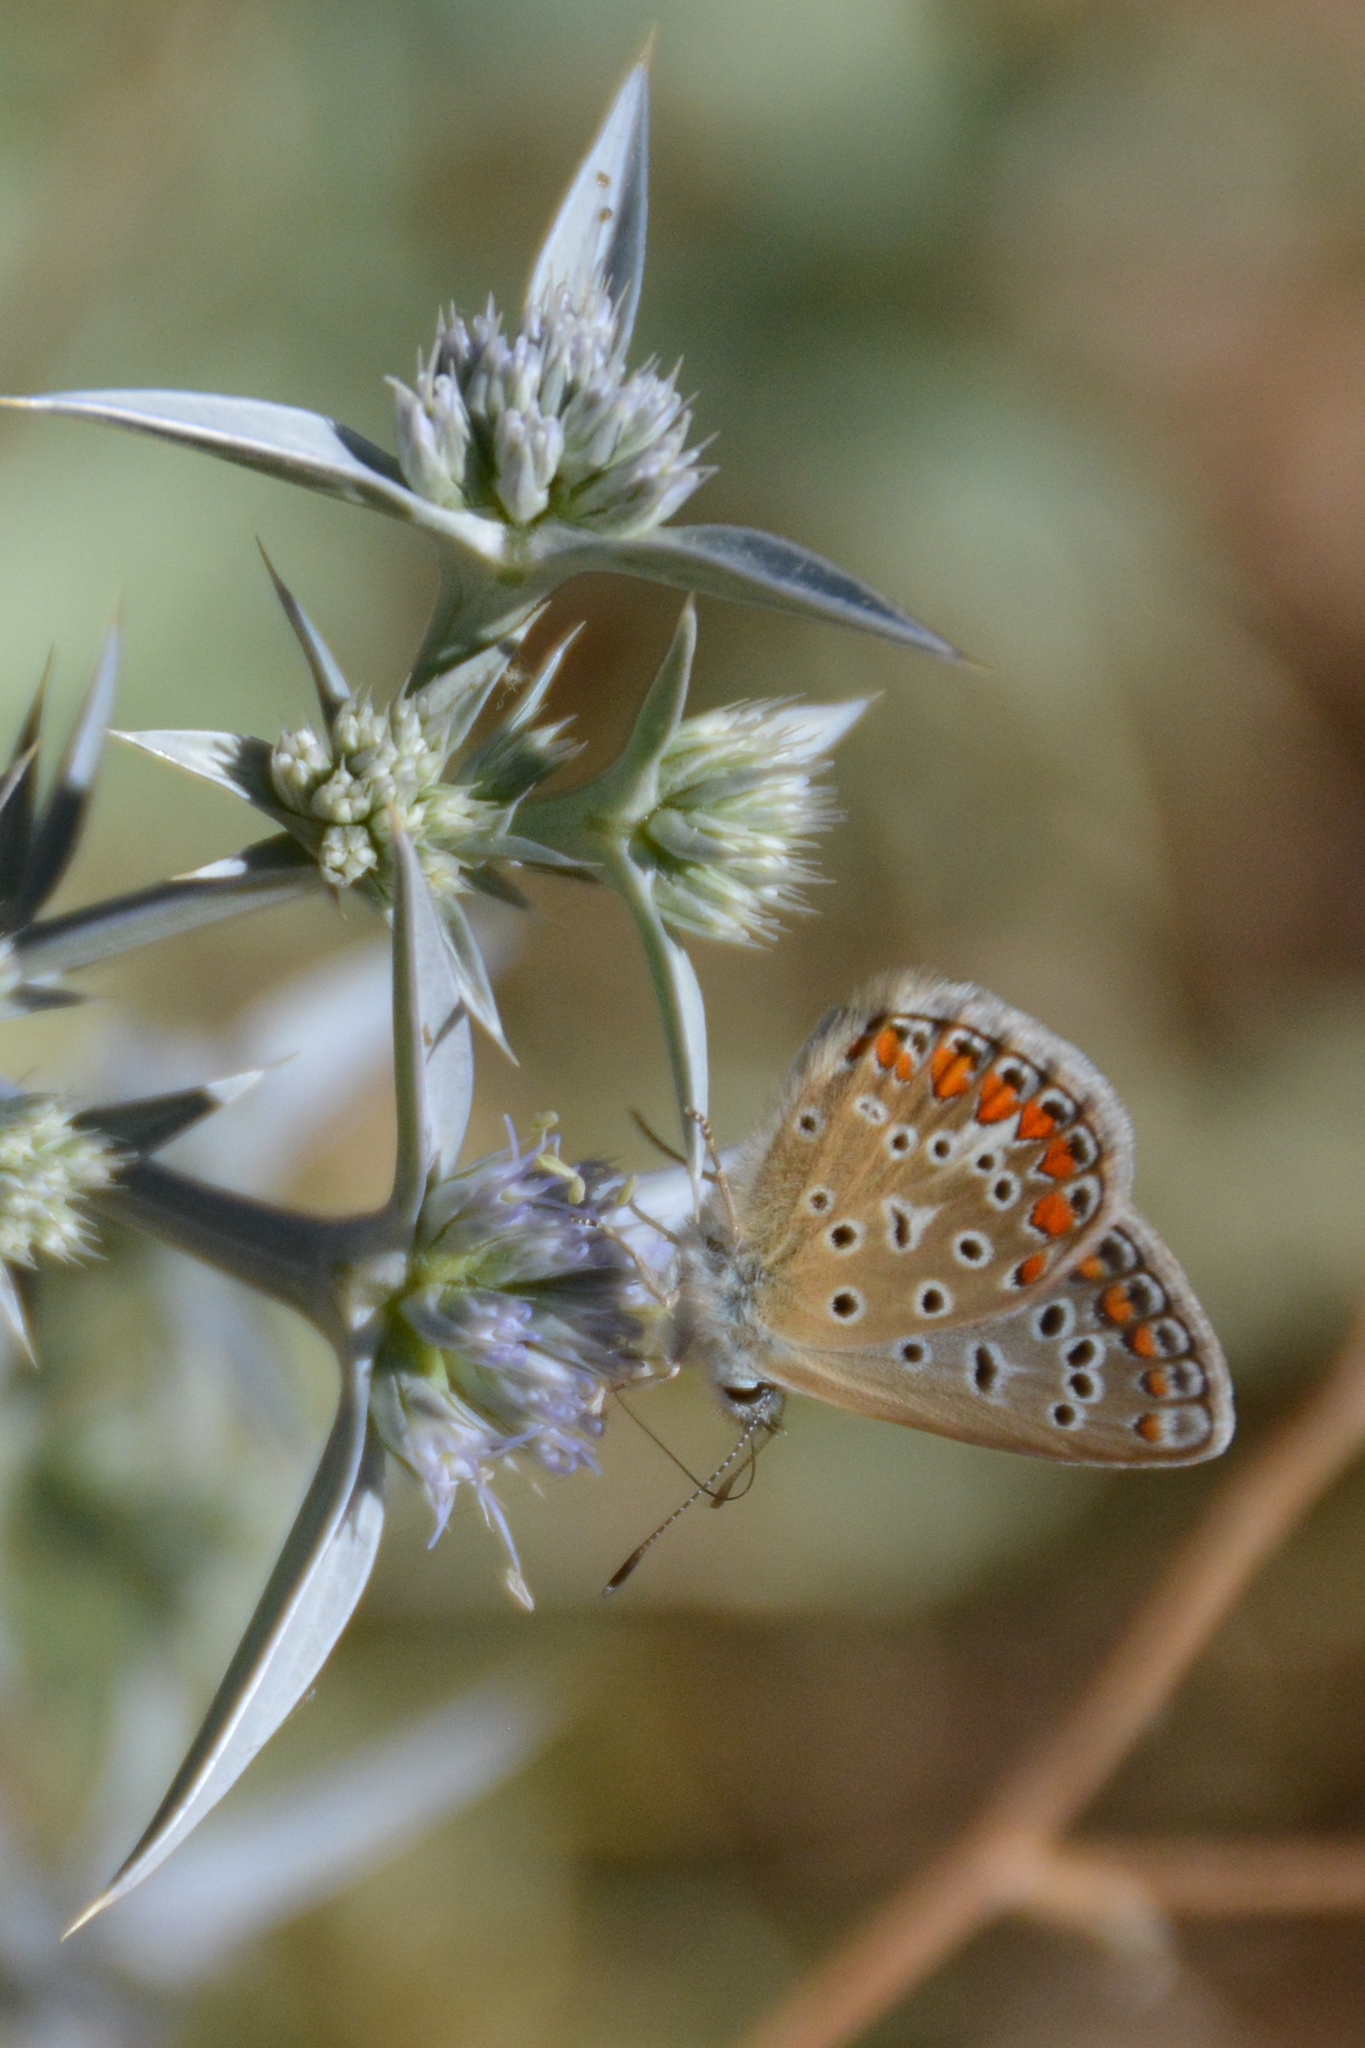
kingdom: Animalia
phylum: Arthropoda
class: Insecta
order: Lepidoptera
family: Lycaenidae
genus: Polyommatus
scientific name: Polyommatus celina
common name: Austaut's blue
